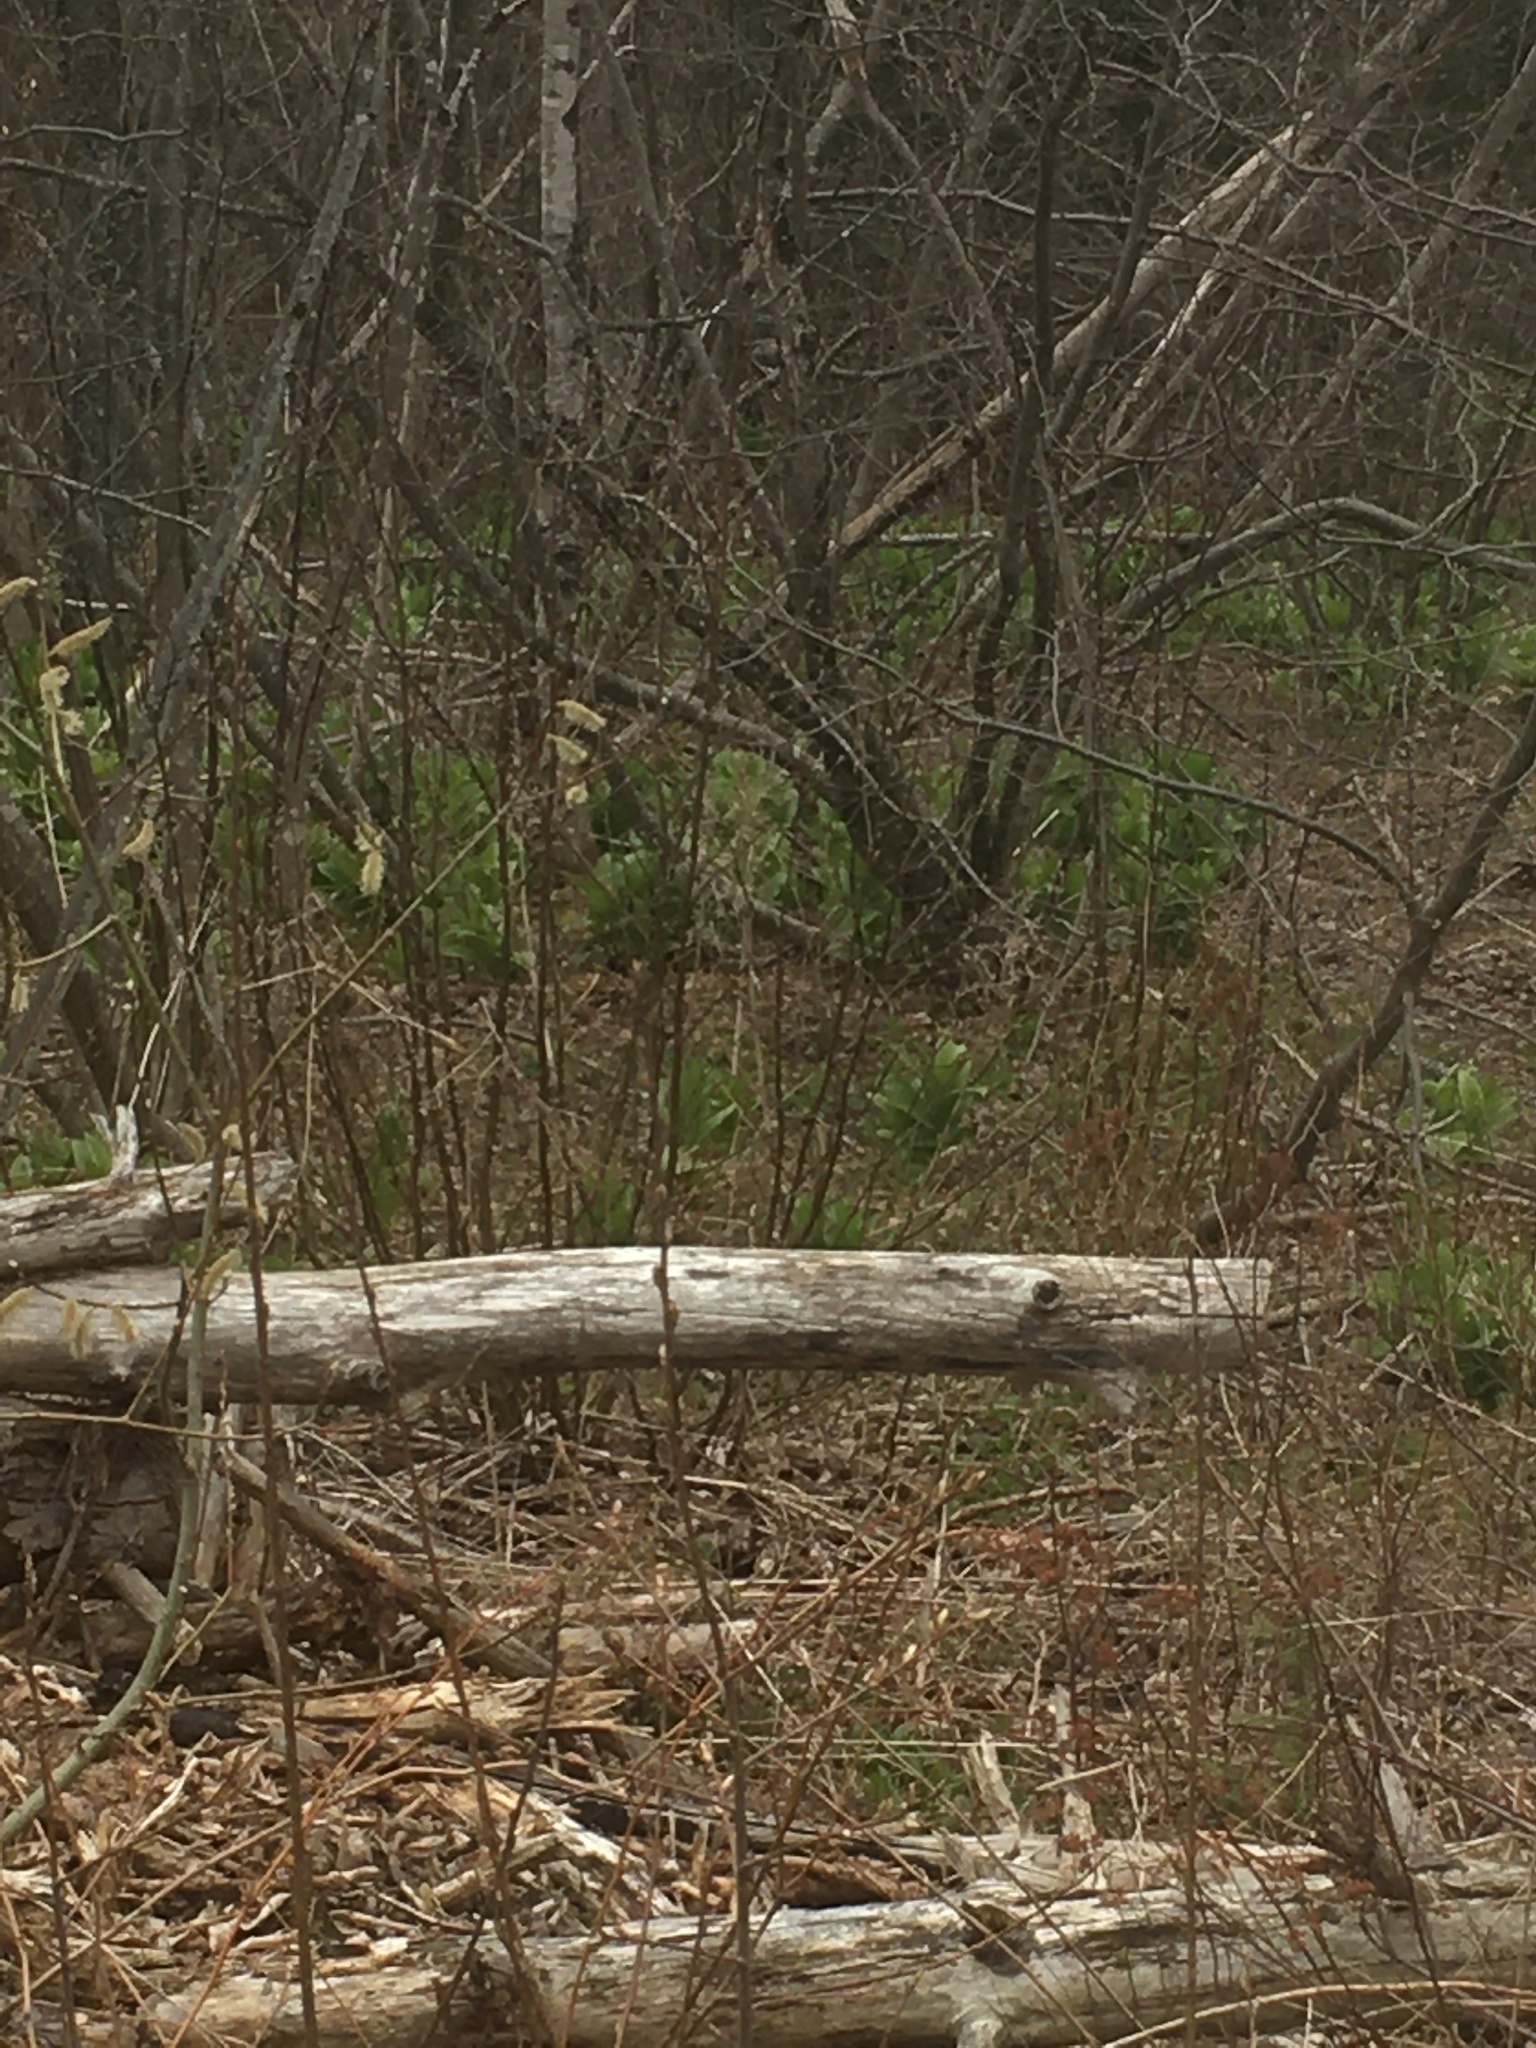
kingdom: Plantae
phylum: Tracheophyta
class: Liliopsida
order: Liliales
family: Melanthiaceae
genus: Veratrum
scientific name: Veratrum viride
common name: American false hellebore
